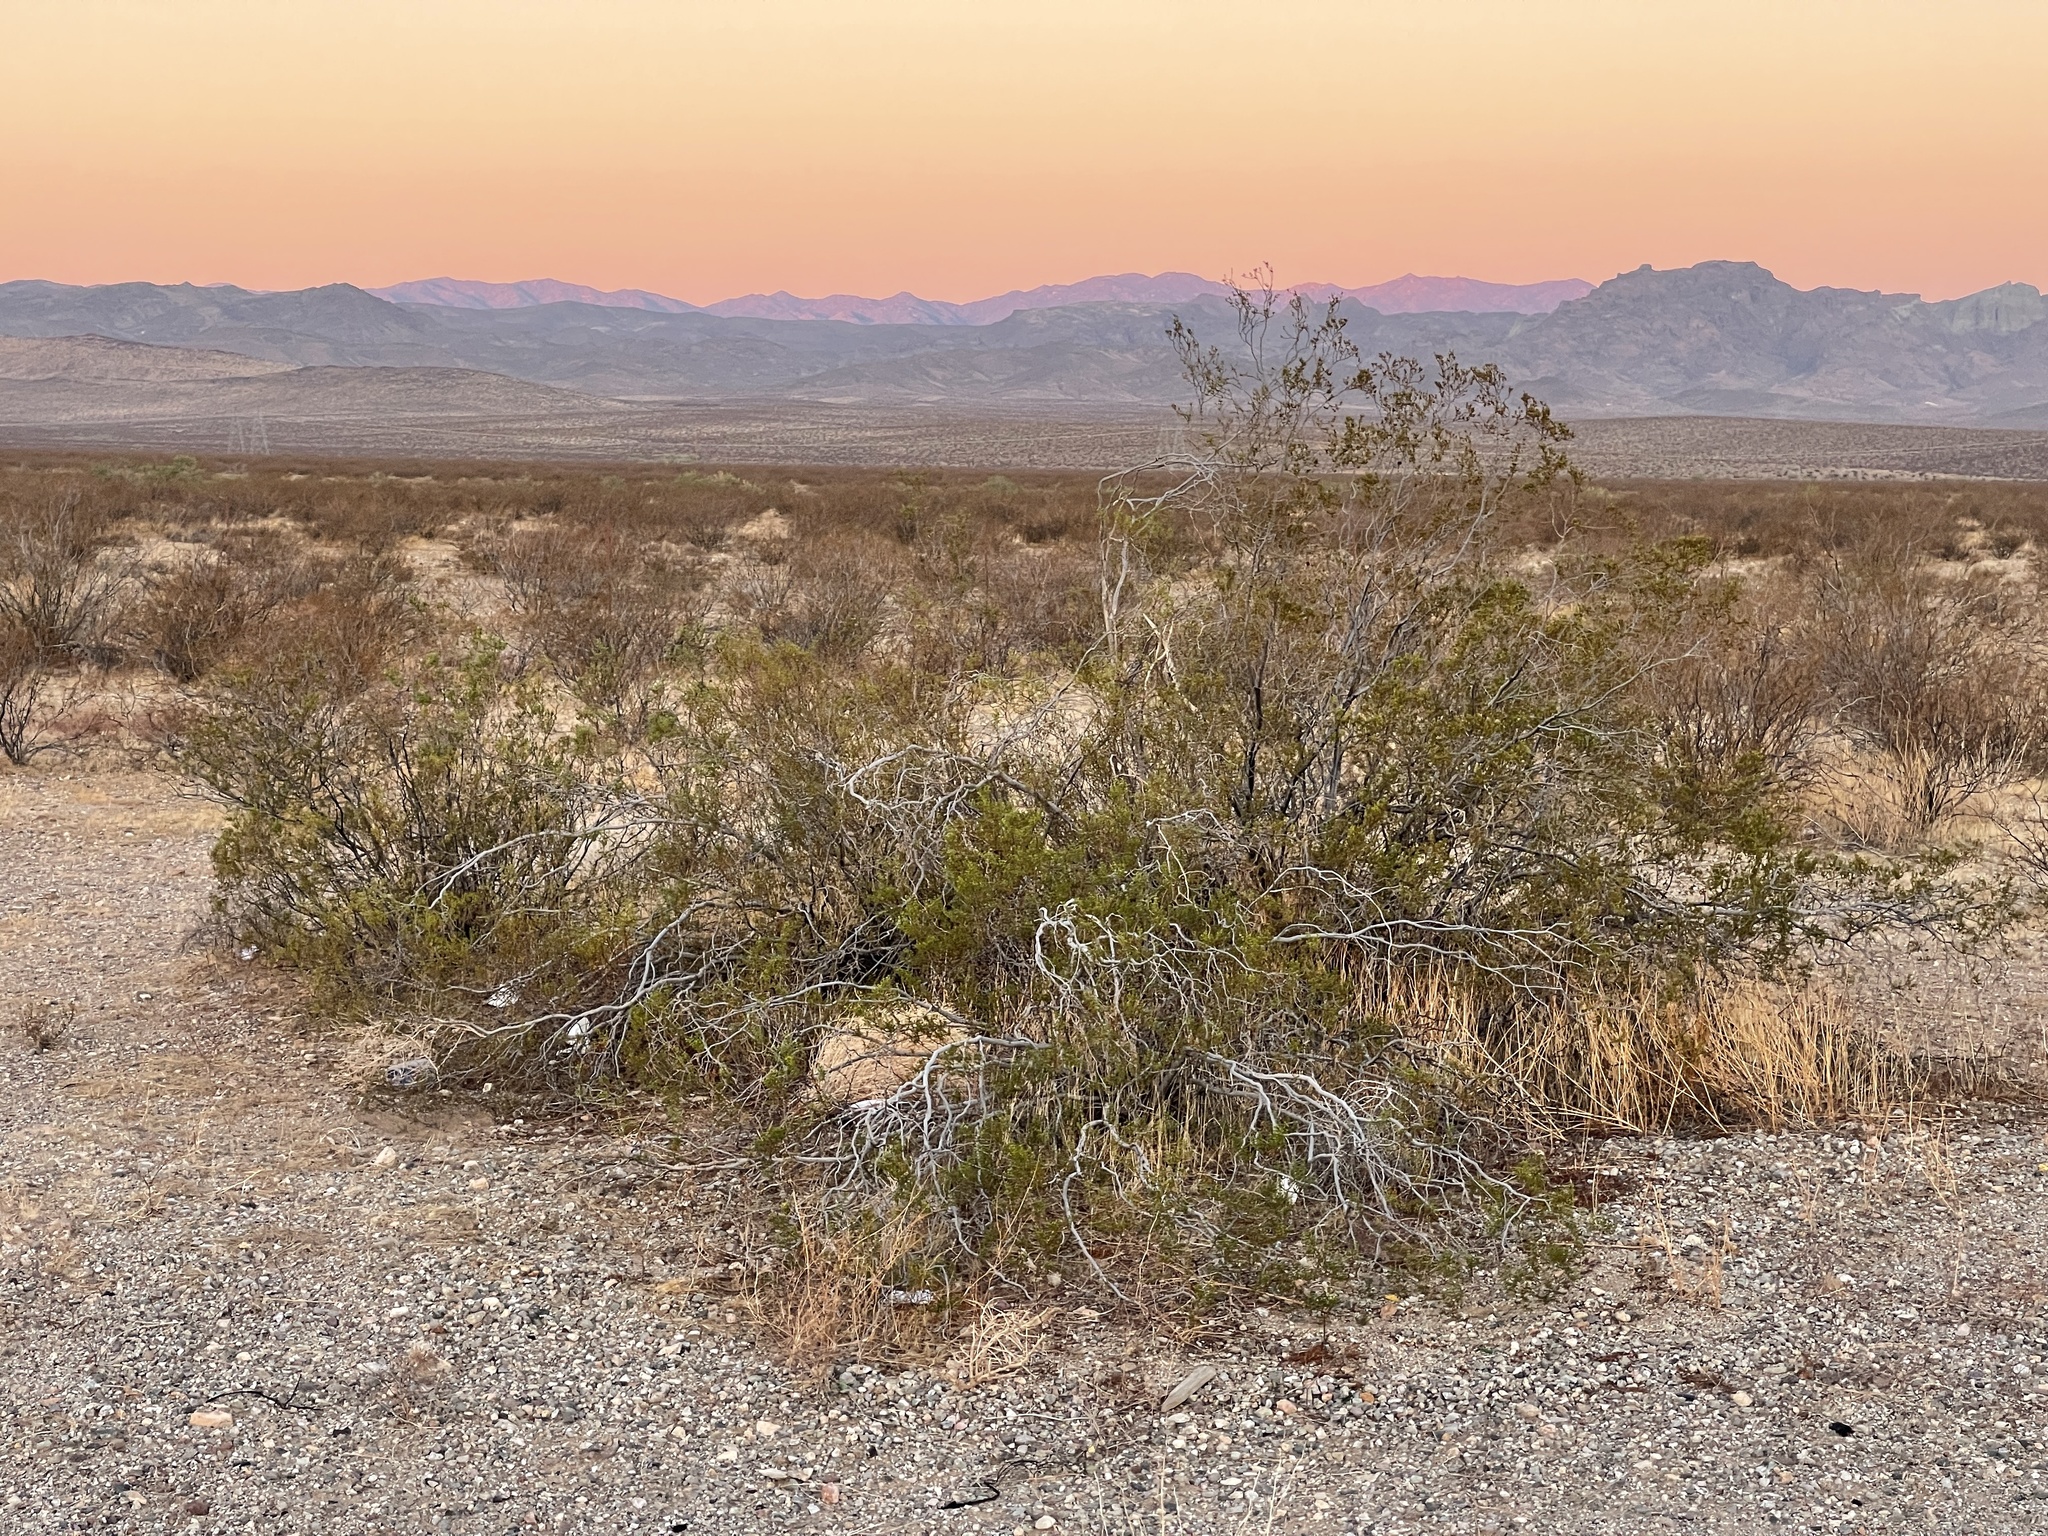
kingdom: Plantae
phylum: Tracheophyta
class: Magnoliopsida
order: Zygophyllales
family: Zygophyllaceae
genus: Larrea
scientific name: Larrea tridentata
